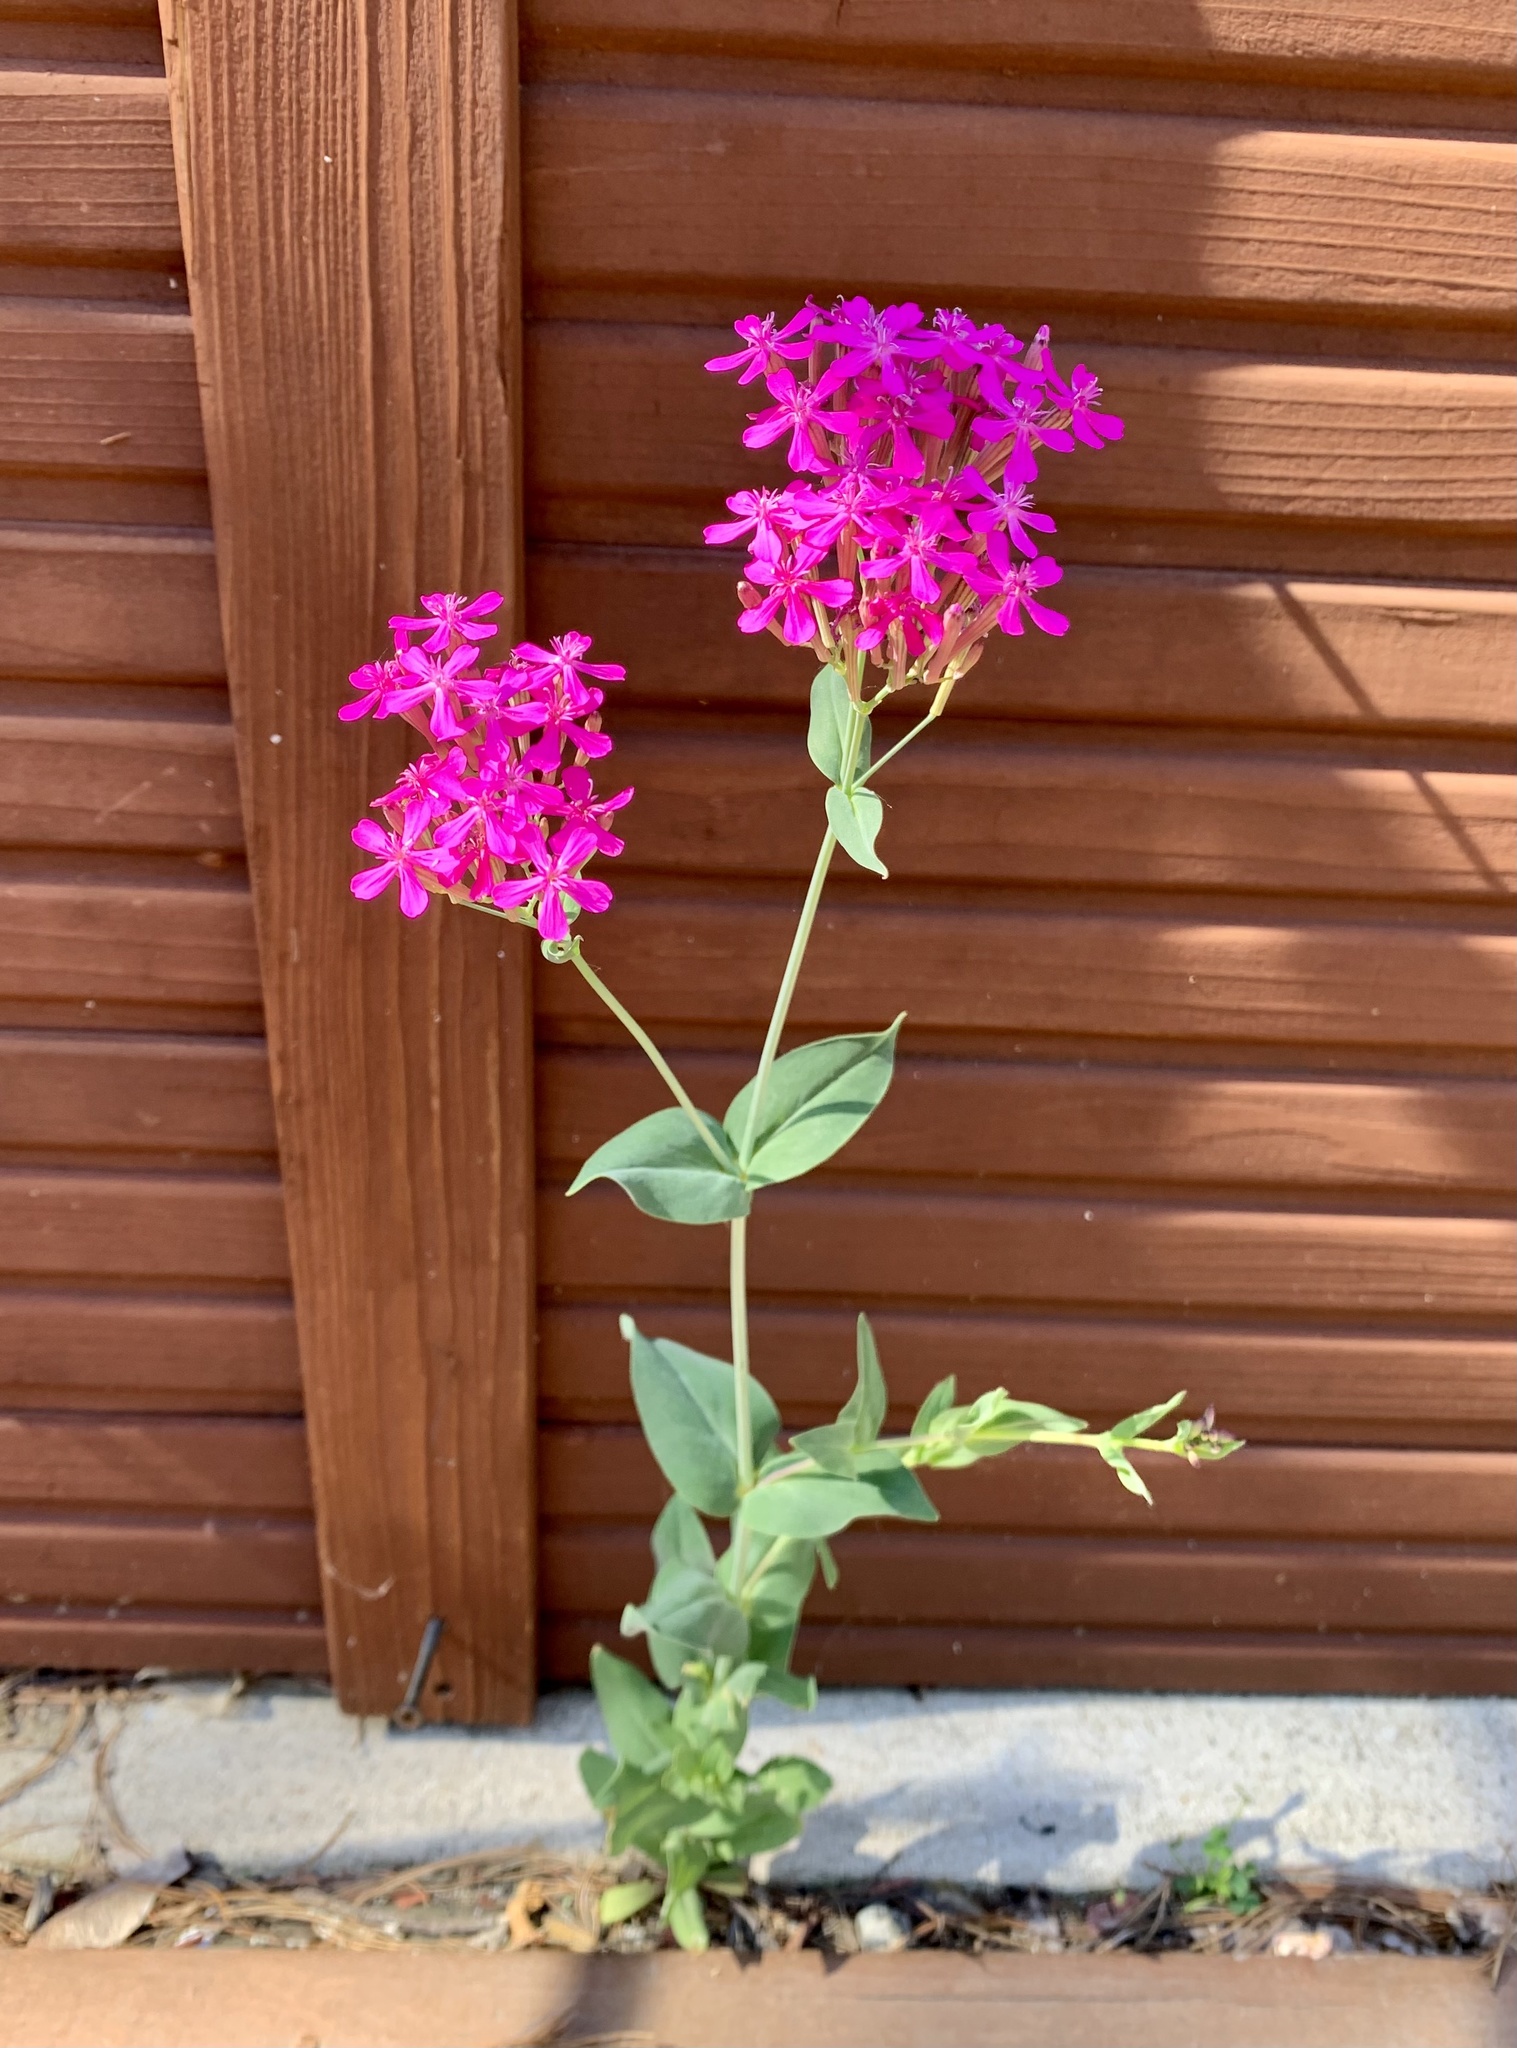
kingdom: Plantae
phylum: Tracheophyta
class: Magnoliopsida
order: Caryophyllales
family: Caryophyllaceae
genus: Atocion
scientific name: Atocion armeria
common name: Sweet william catchfly
